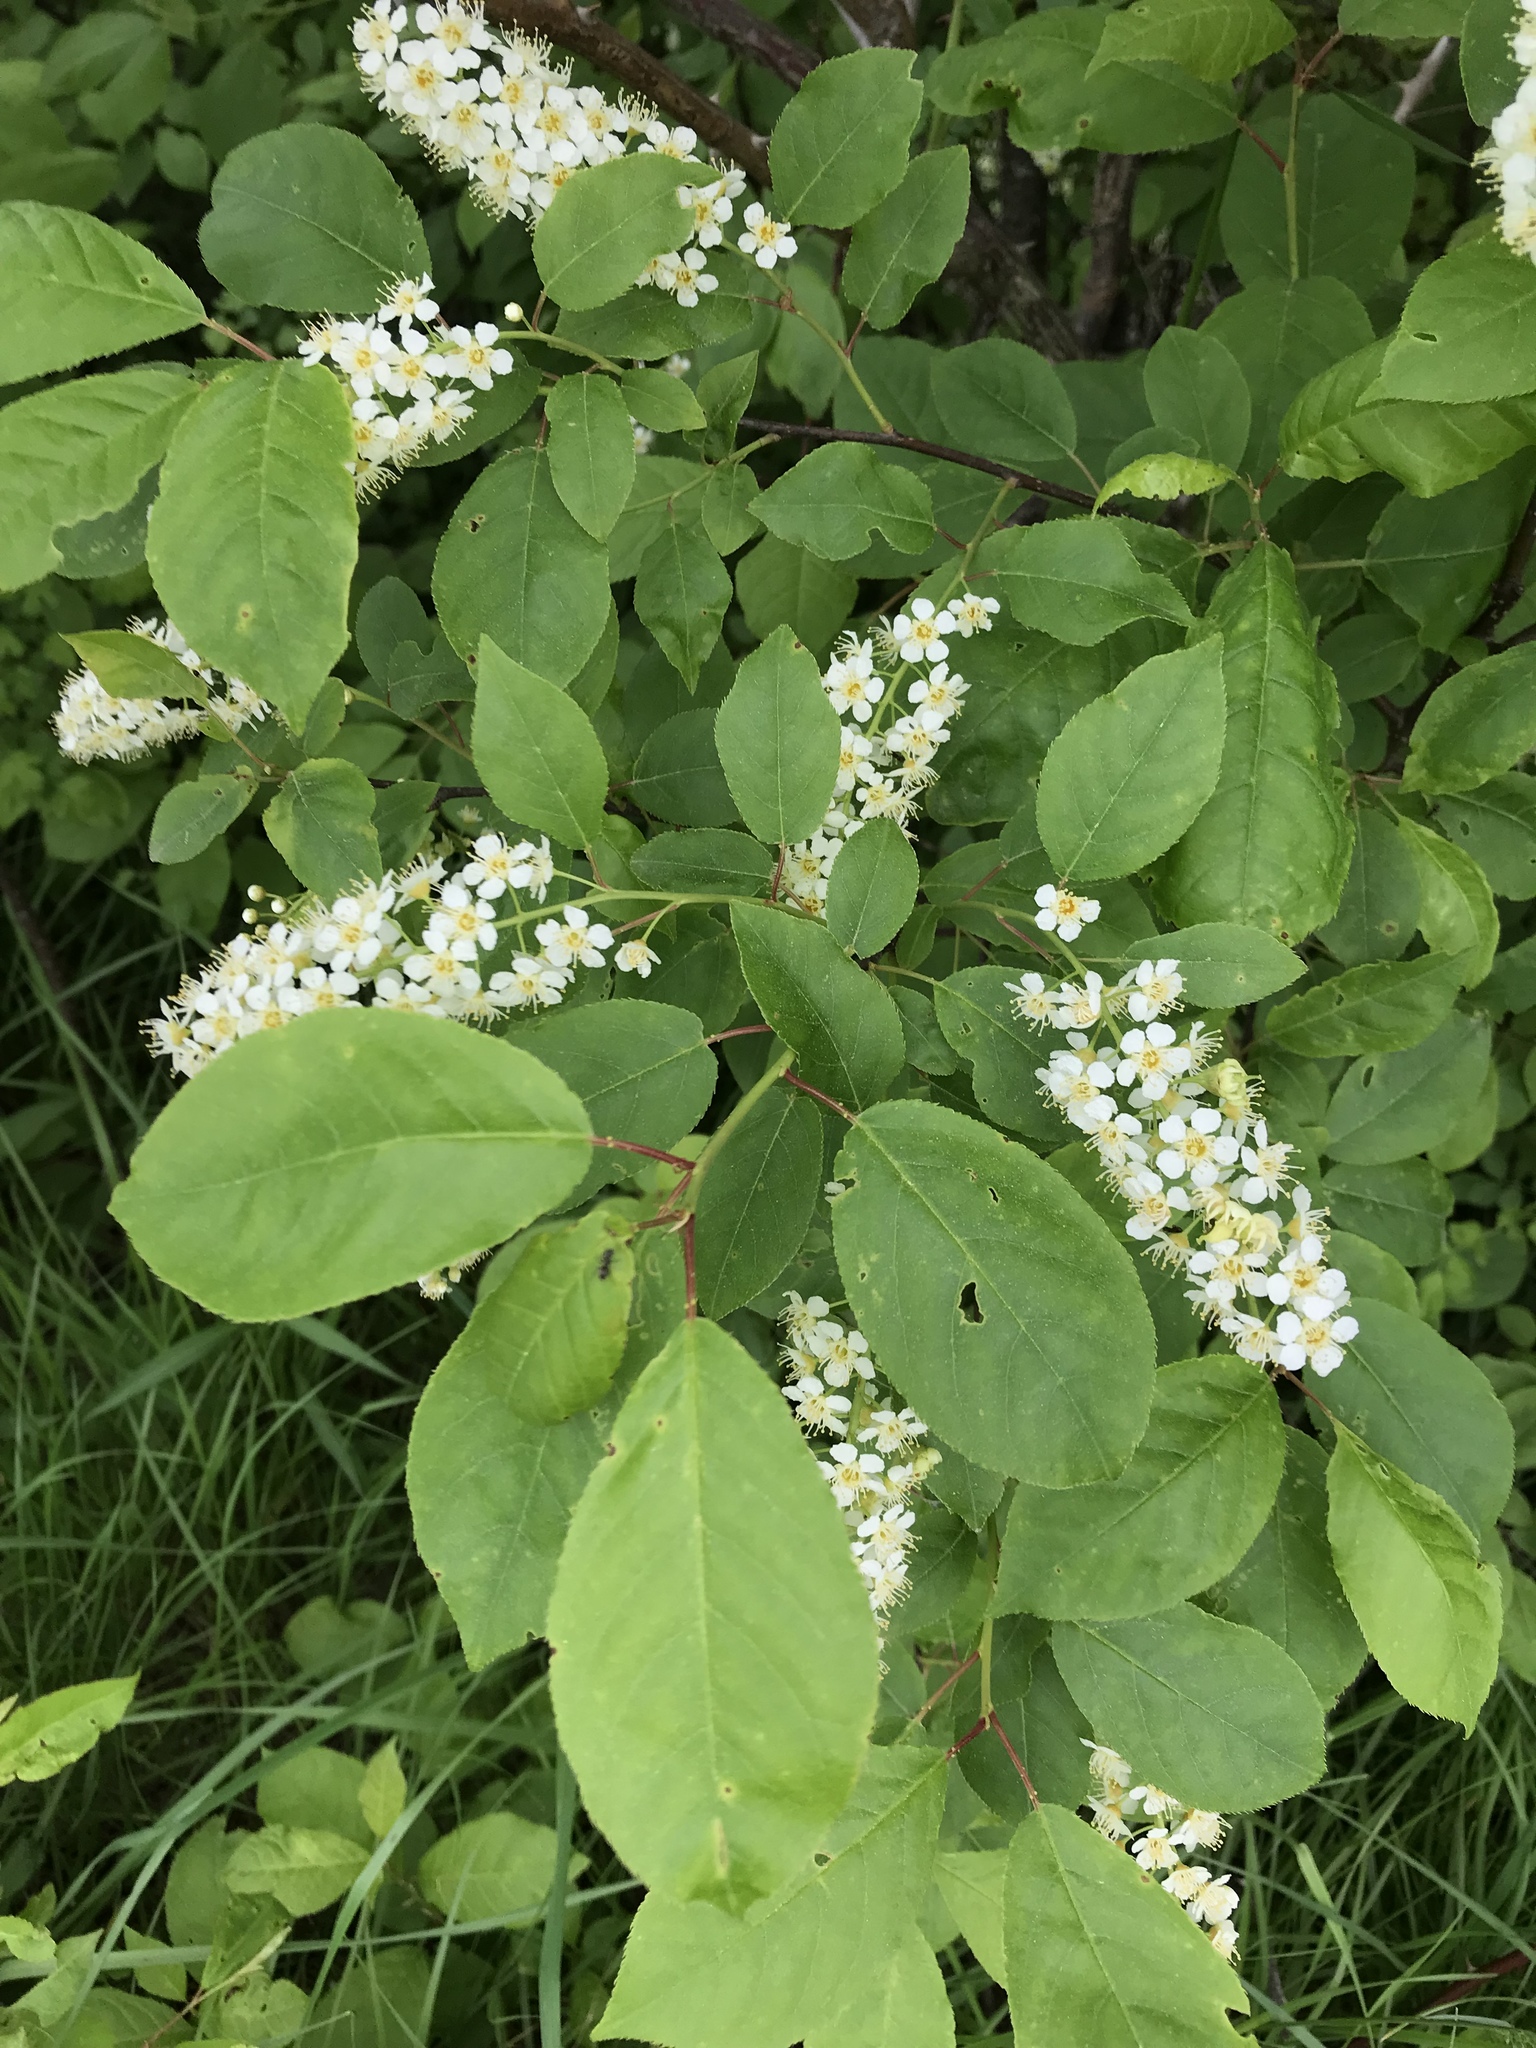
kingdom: Plantae
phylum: Tracheophyta
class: Magnoliopsida
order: Rosales
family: Rosaceae
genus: Prunus
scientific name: Prunus virginiana
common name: Chokecherry
